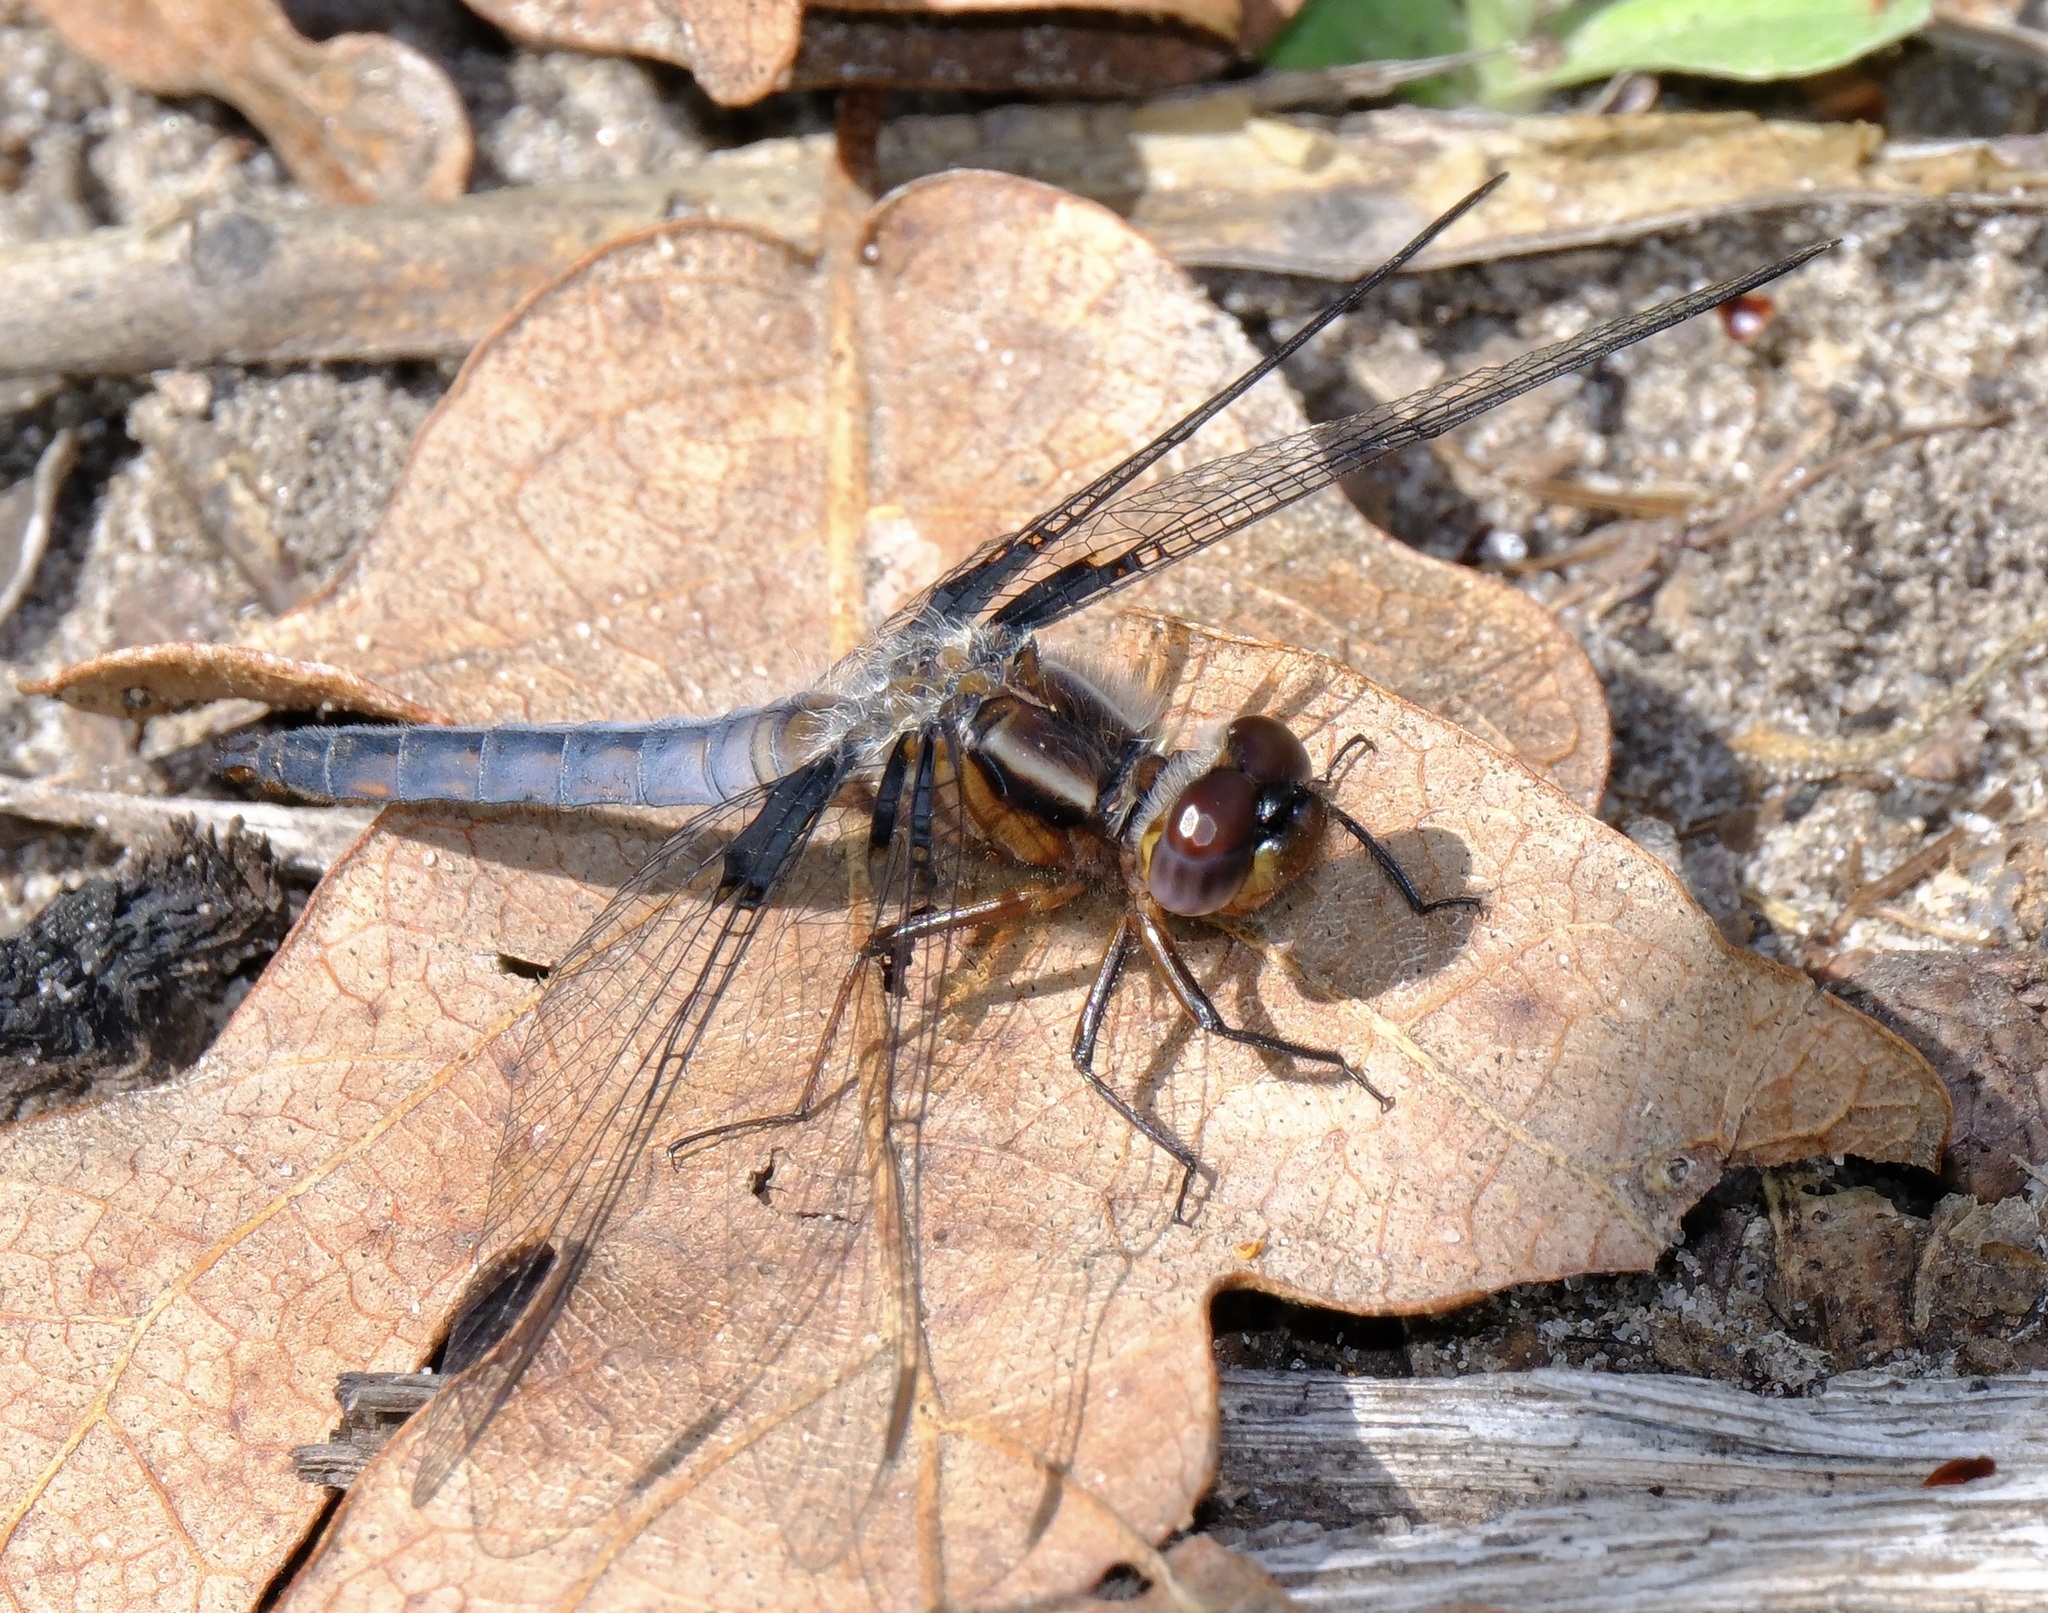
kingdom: Animalia
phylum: Arthropoda
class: Insecta
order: Odonata
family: Libellulidae
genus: Ladona
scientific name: Ladona deplanata
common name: Blue corporal
